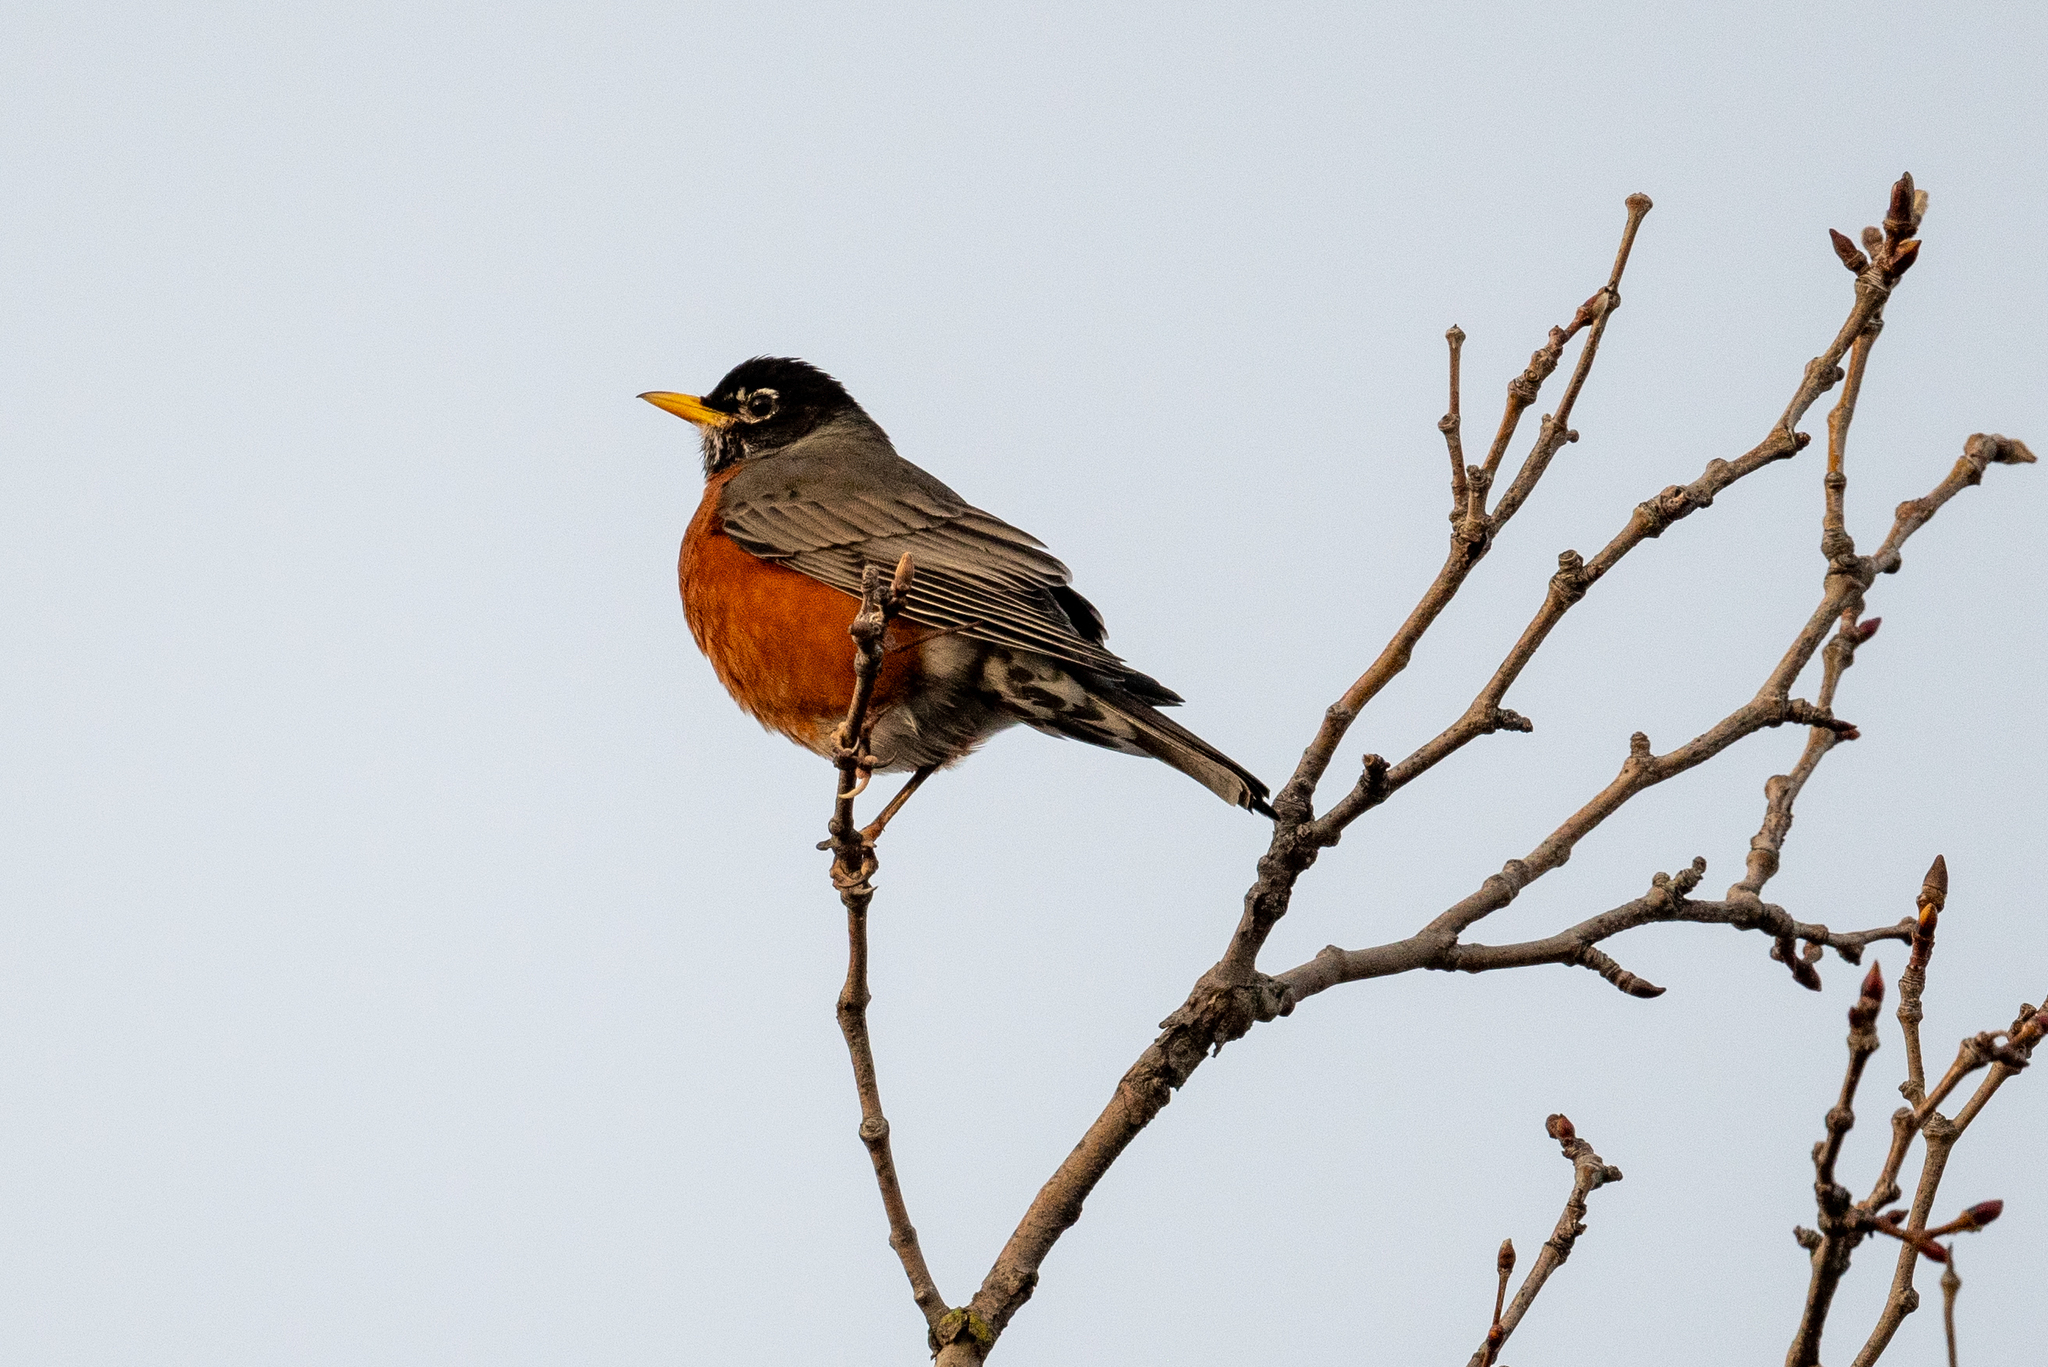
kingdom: Animalia
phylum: Chordata
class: Aves
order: Passeriformes
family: Turdidae
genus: Turdus
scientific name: Turdus migratorius
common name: American robin
